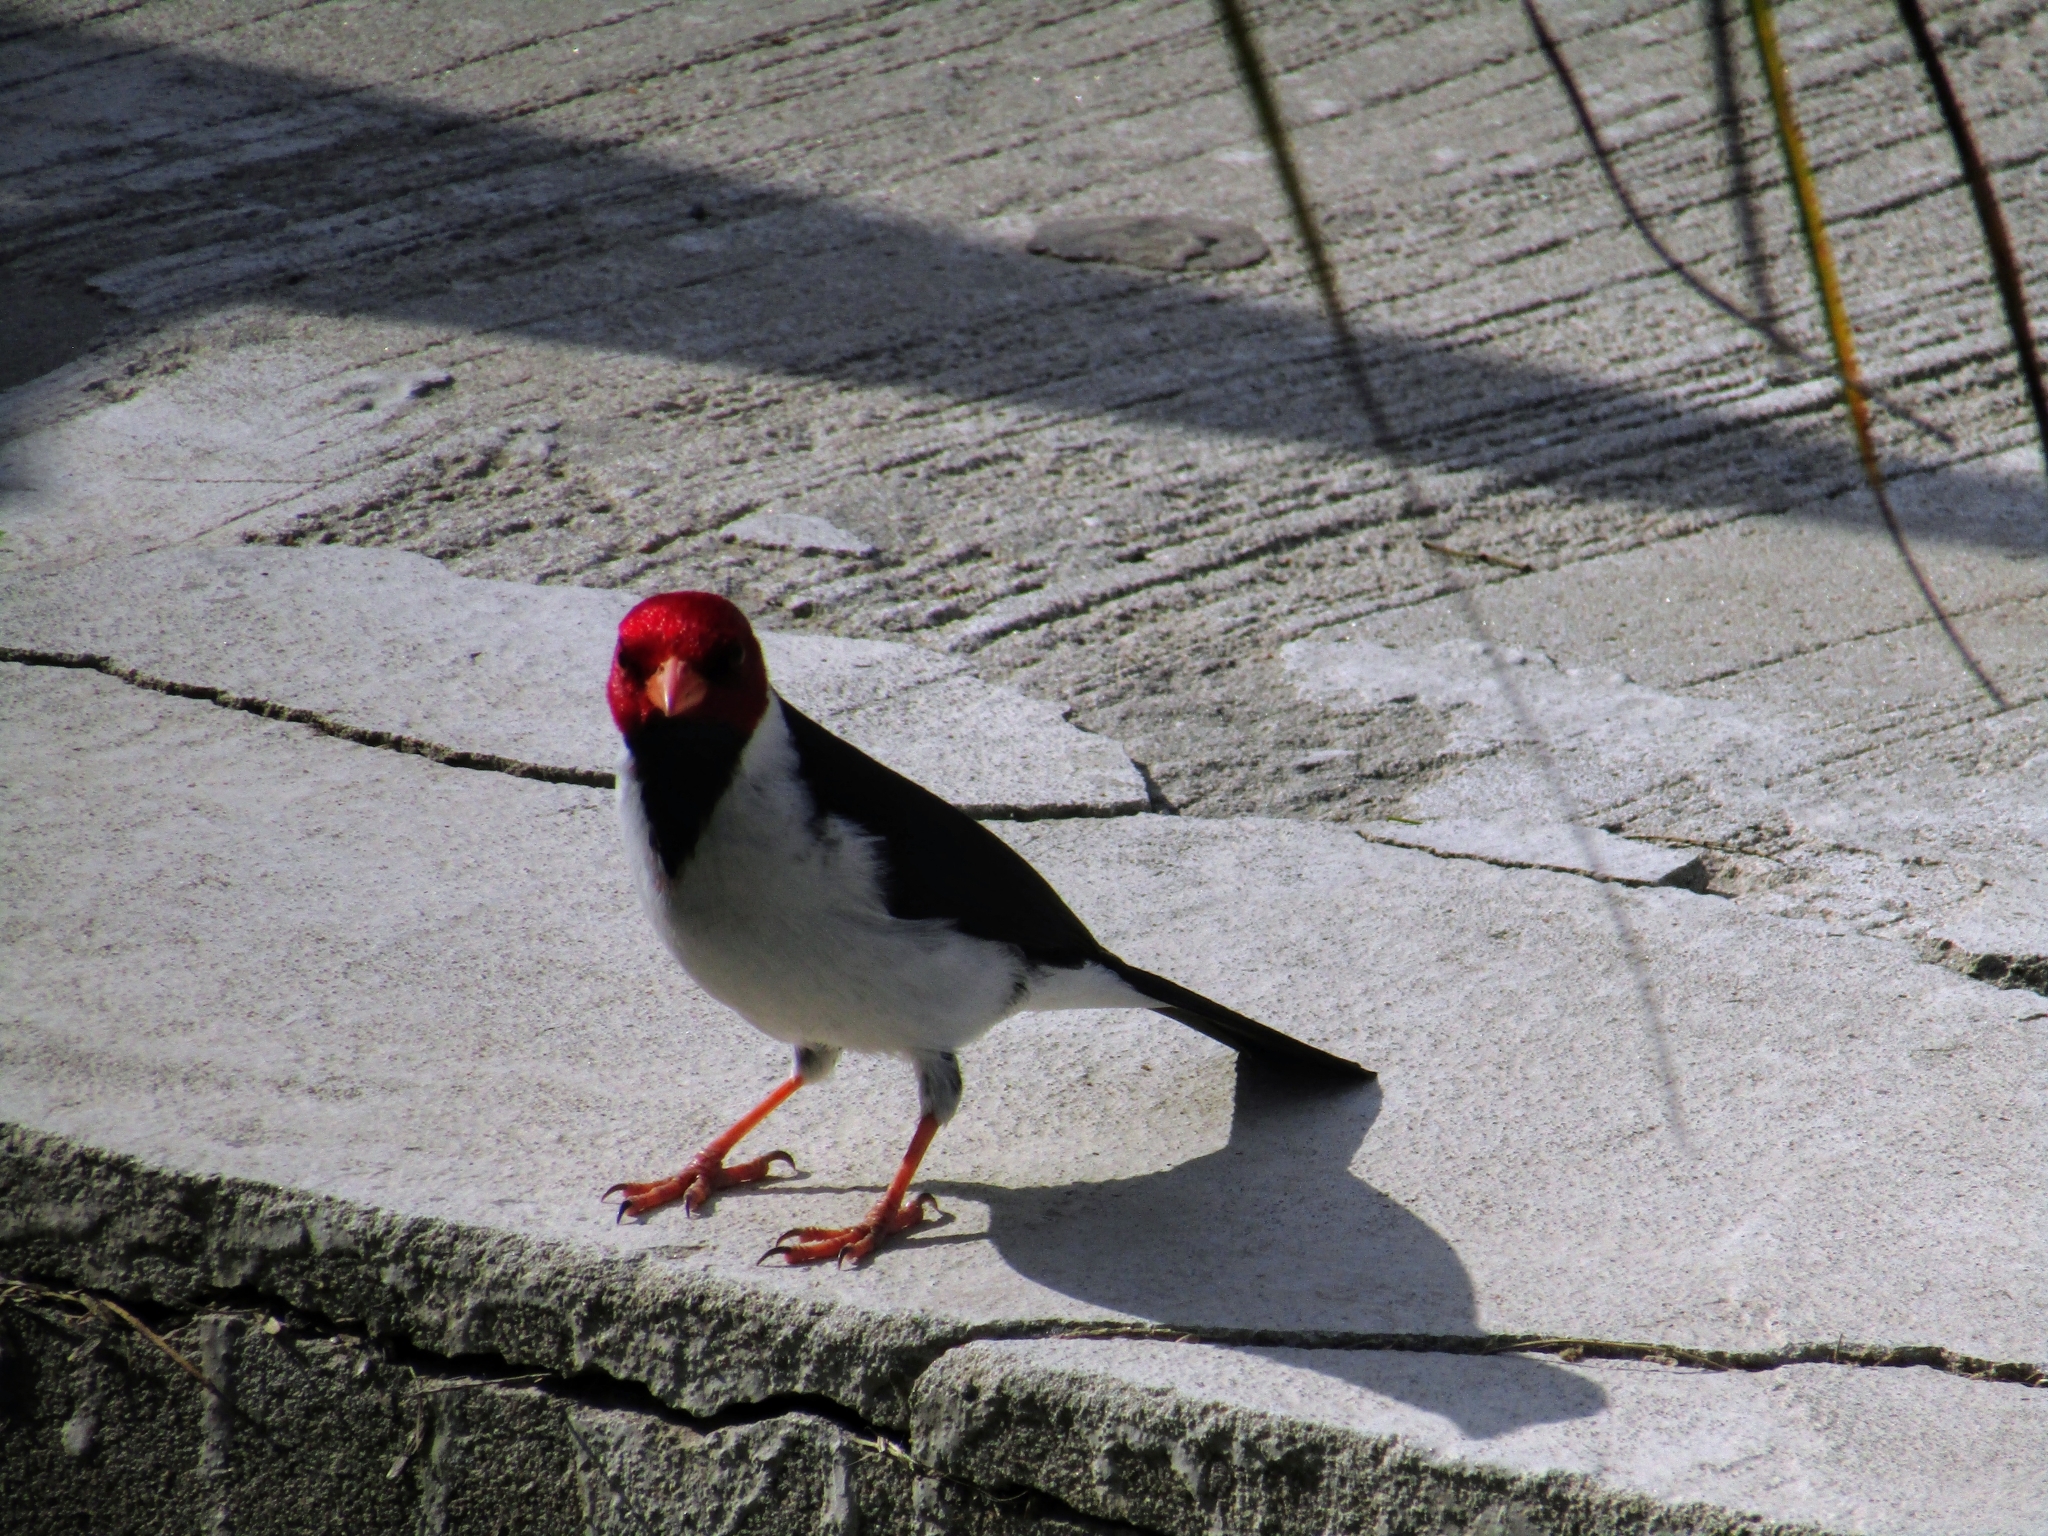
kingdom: Animalia
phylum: Chordata
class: Aves
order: Passeriformes
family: Thraupidae
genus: Paroaria
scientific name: Paroaria capitata
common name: Yellow-billed cardinal
